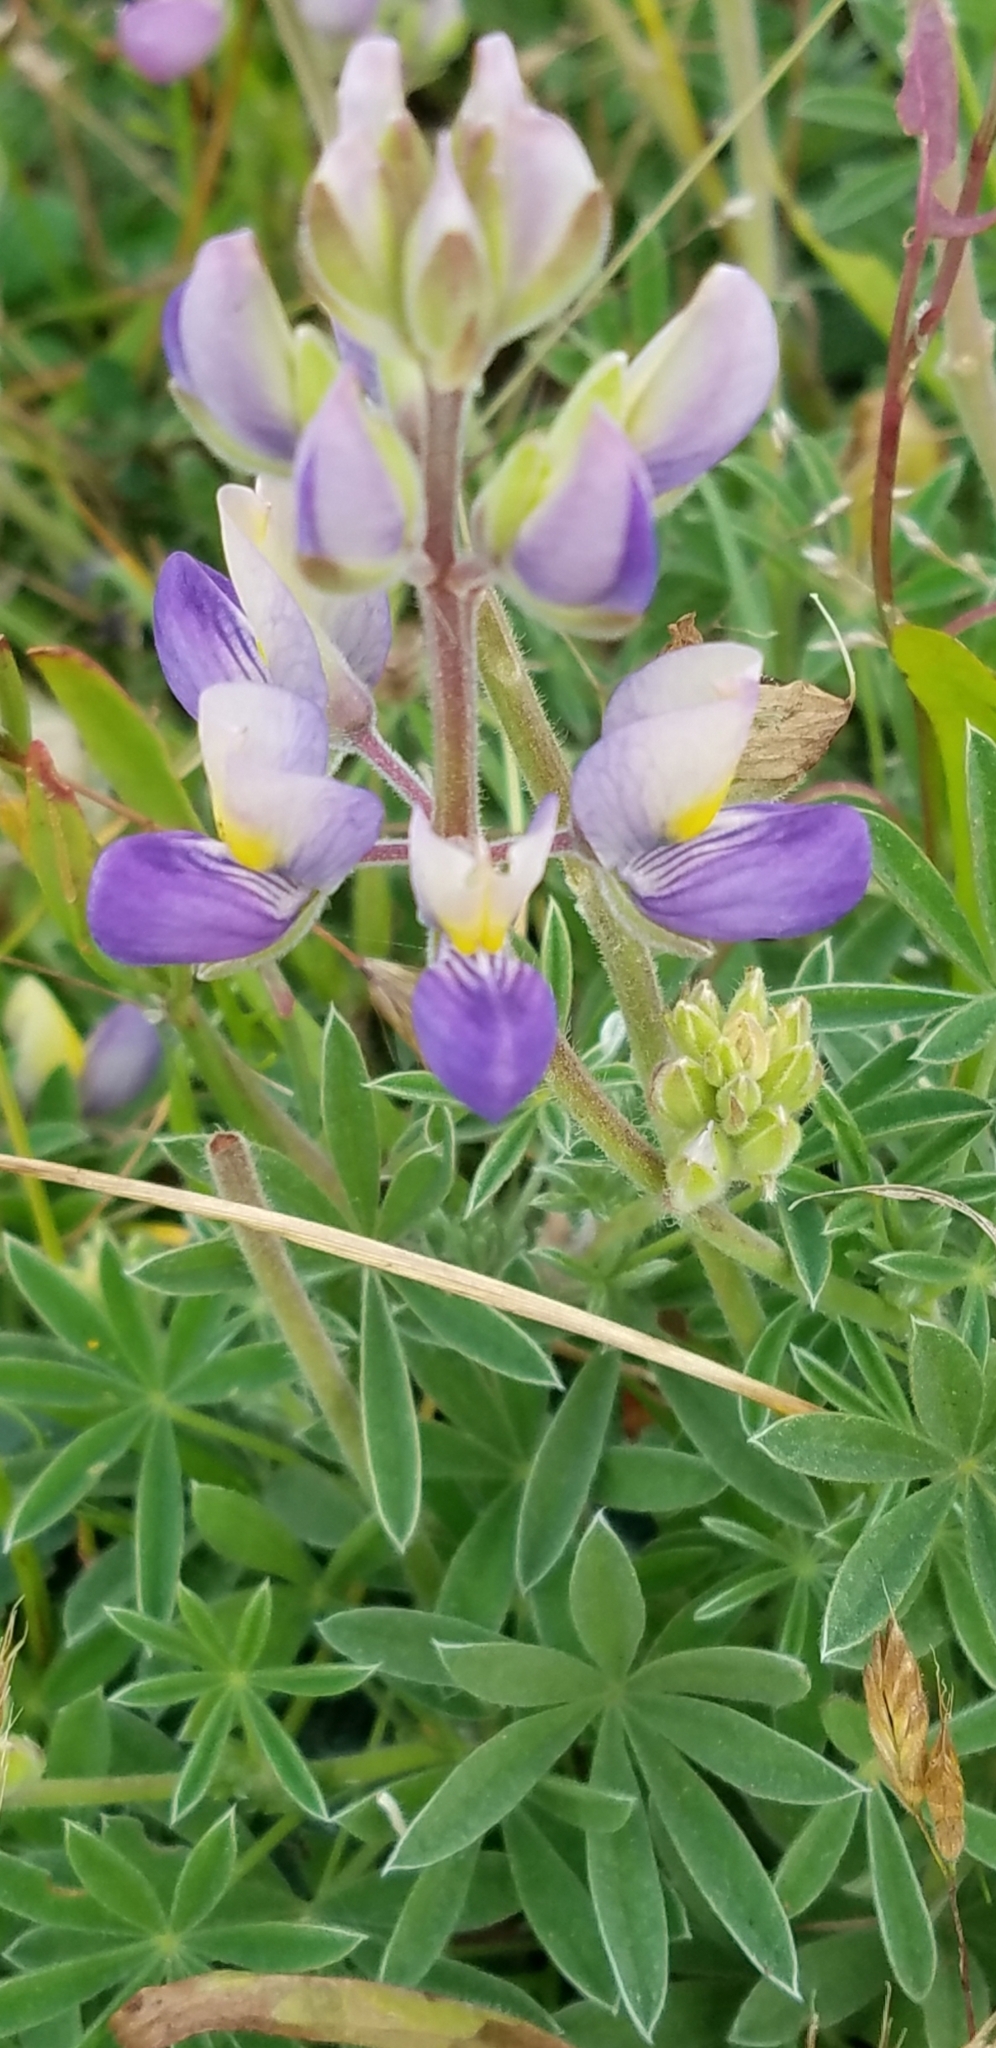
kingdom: Plantae
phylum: Tracheophyta
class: Magnoliopsida
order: Fabales
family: Fabaceae
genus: Lupinus
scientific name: Lupinus variicolor
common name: Lindley's varied lupine
